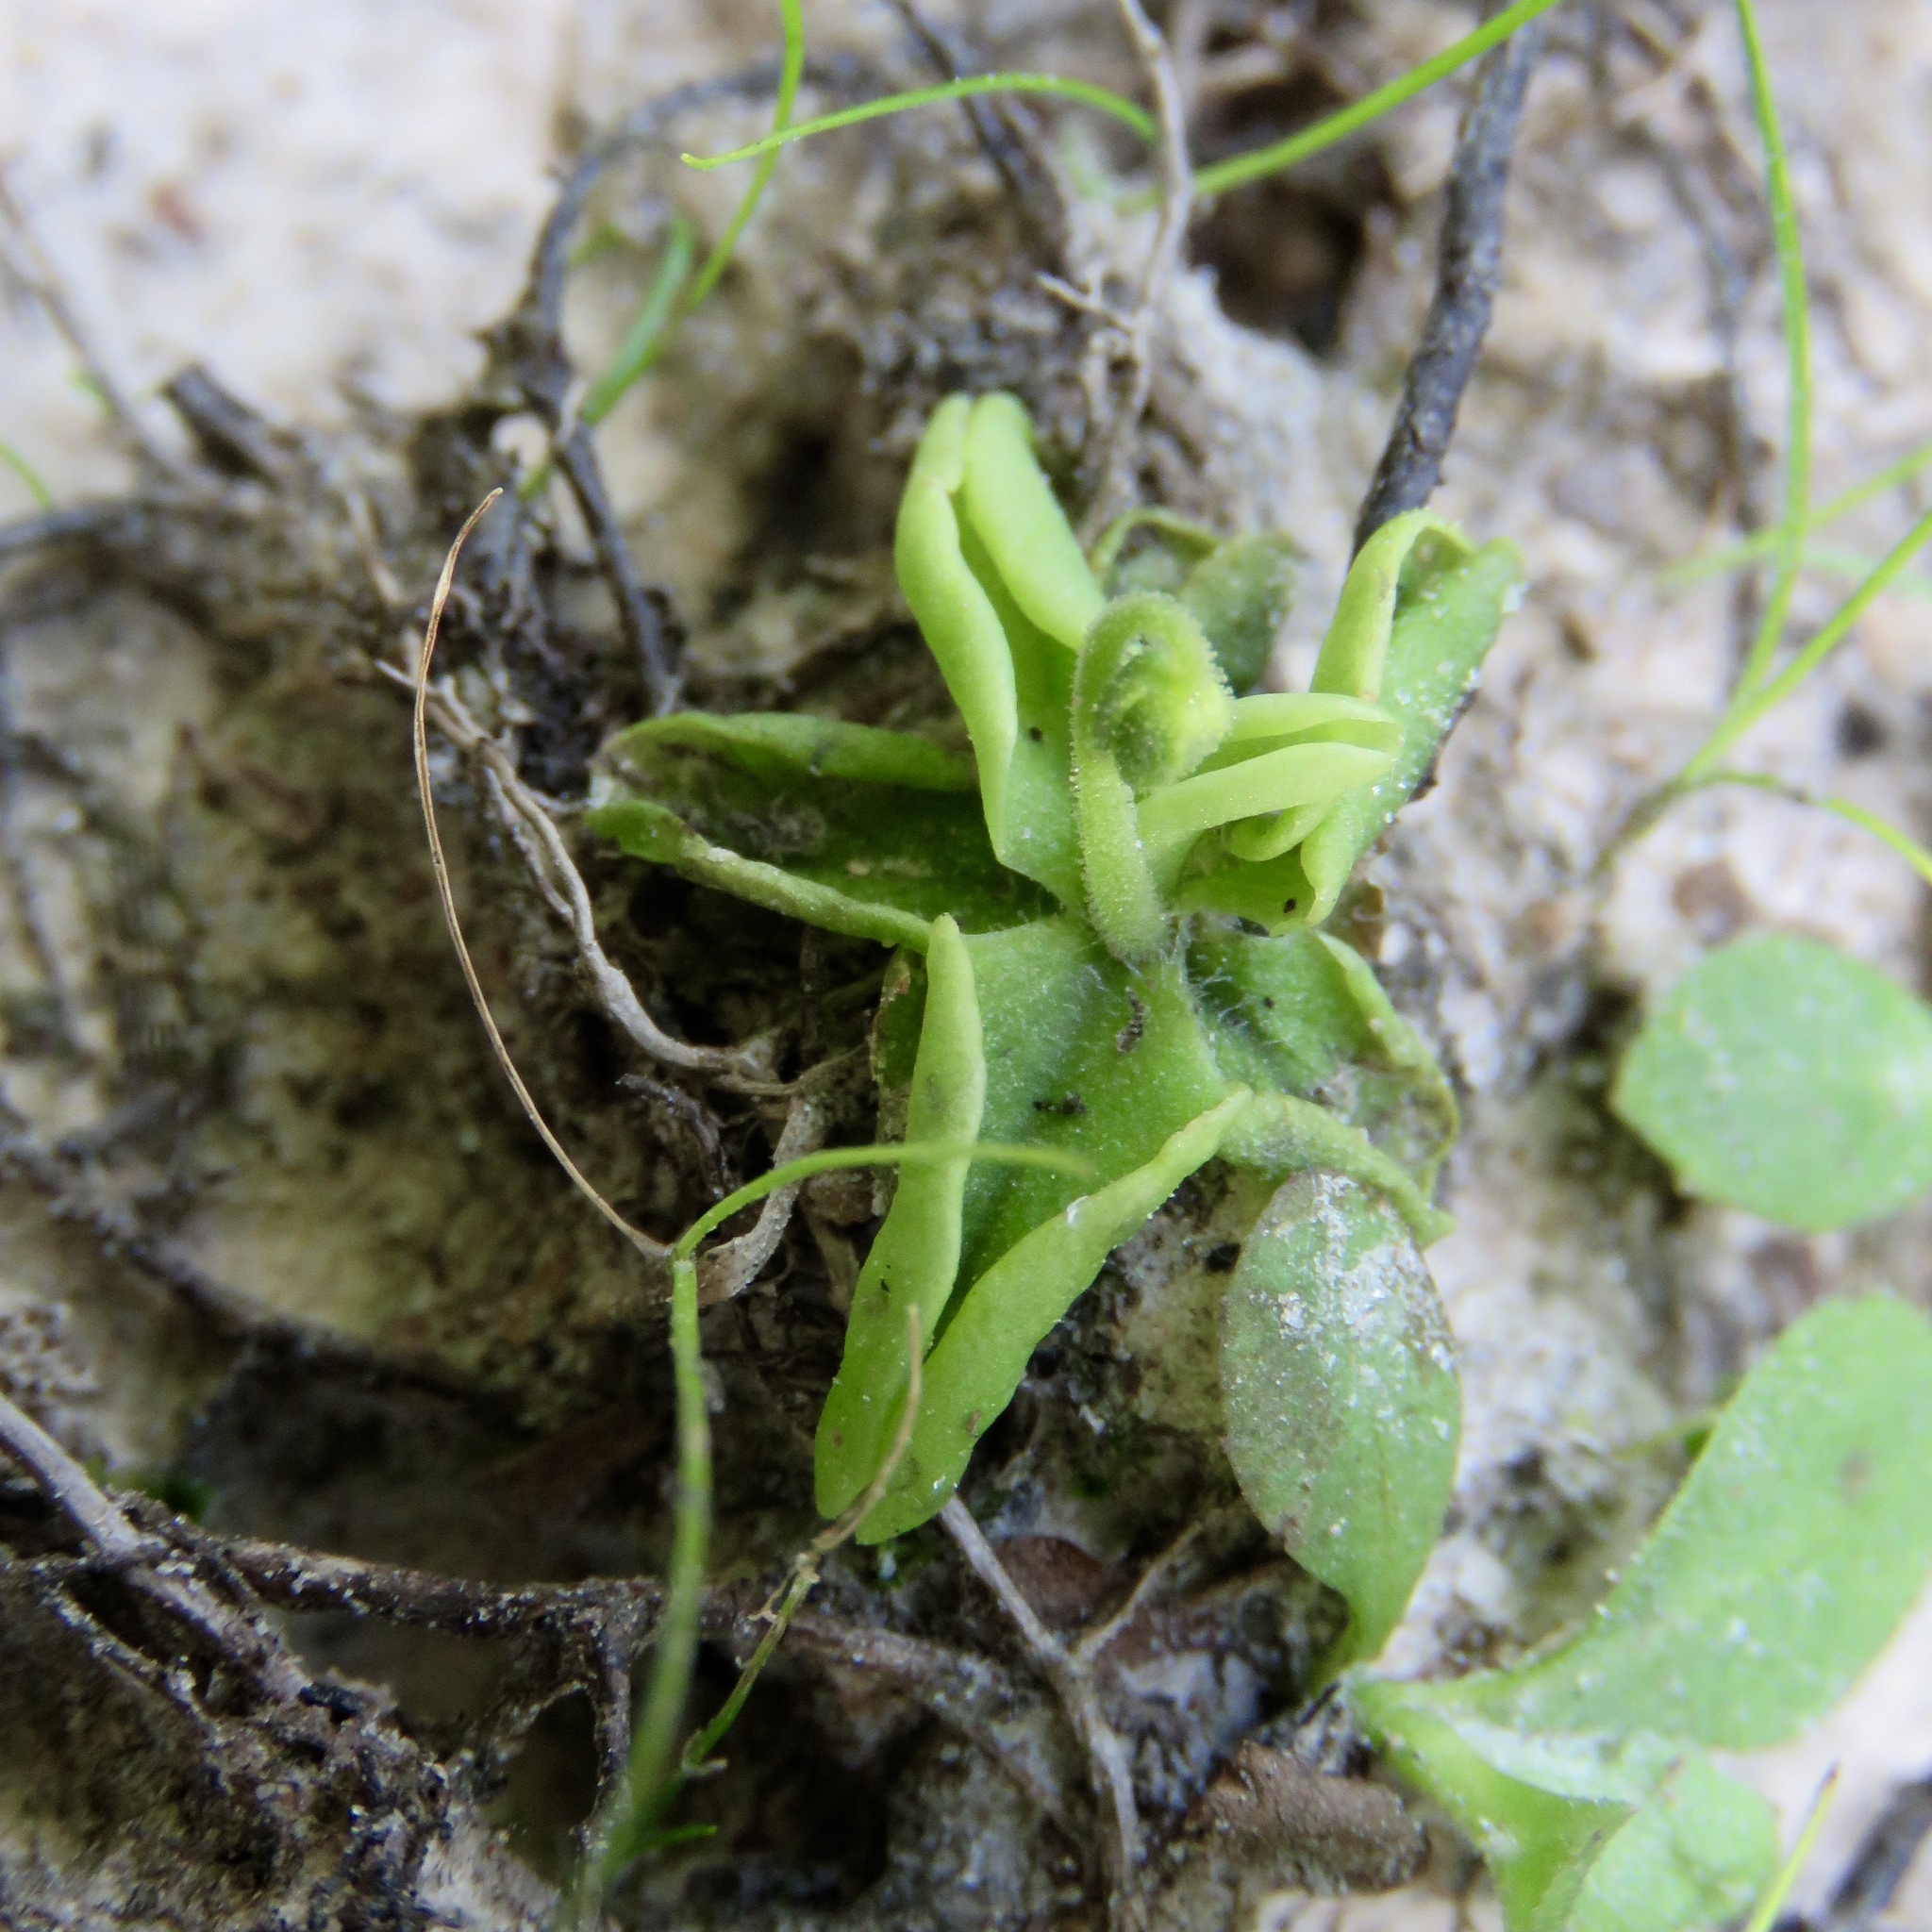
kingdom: Plantae
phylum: Tracheophyta
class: Magnoliopsida
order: Lamiales
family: Lentibulariaceae
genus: Pinguicula
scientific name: Pinguicula pumila
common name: Small butterwort
